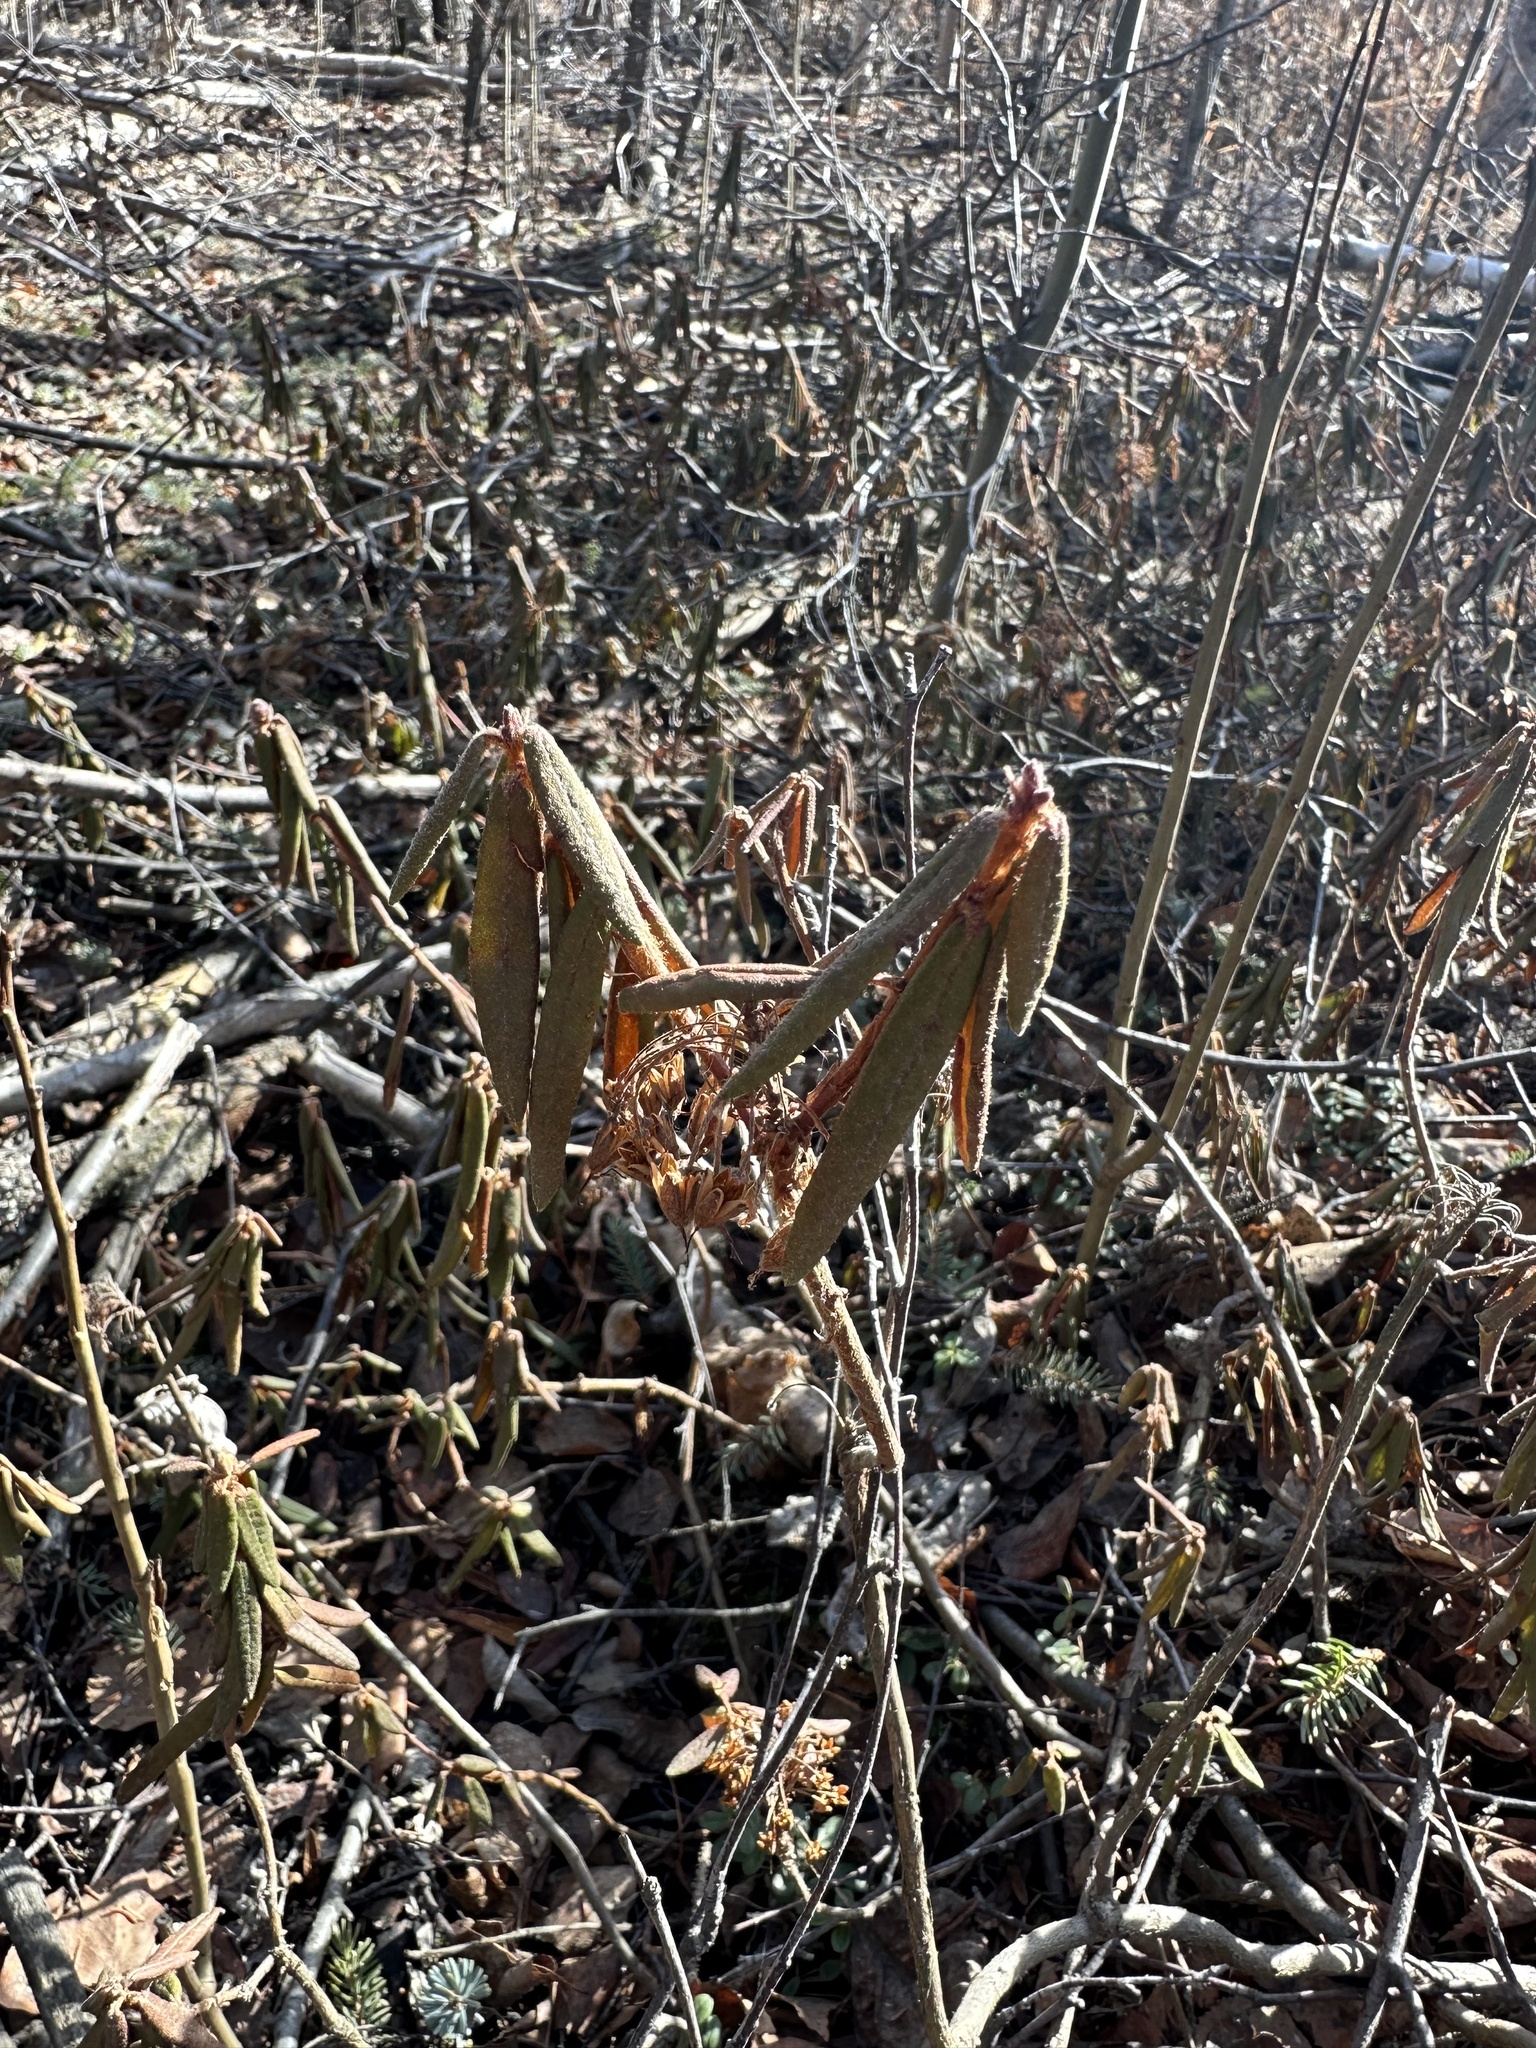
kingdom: Plantae
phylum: Tracheophyta
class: Magnoliopsida
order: Ericales
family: Ericaceae
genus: Rhododendron
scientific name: Rhododendron groenlandicum
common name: Bog labrador tea
